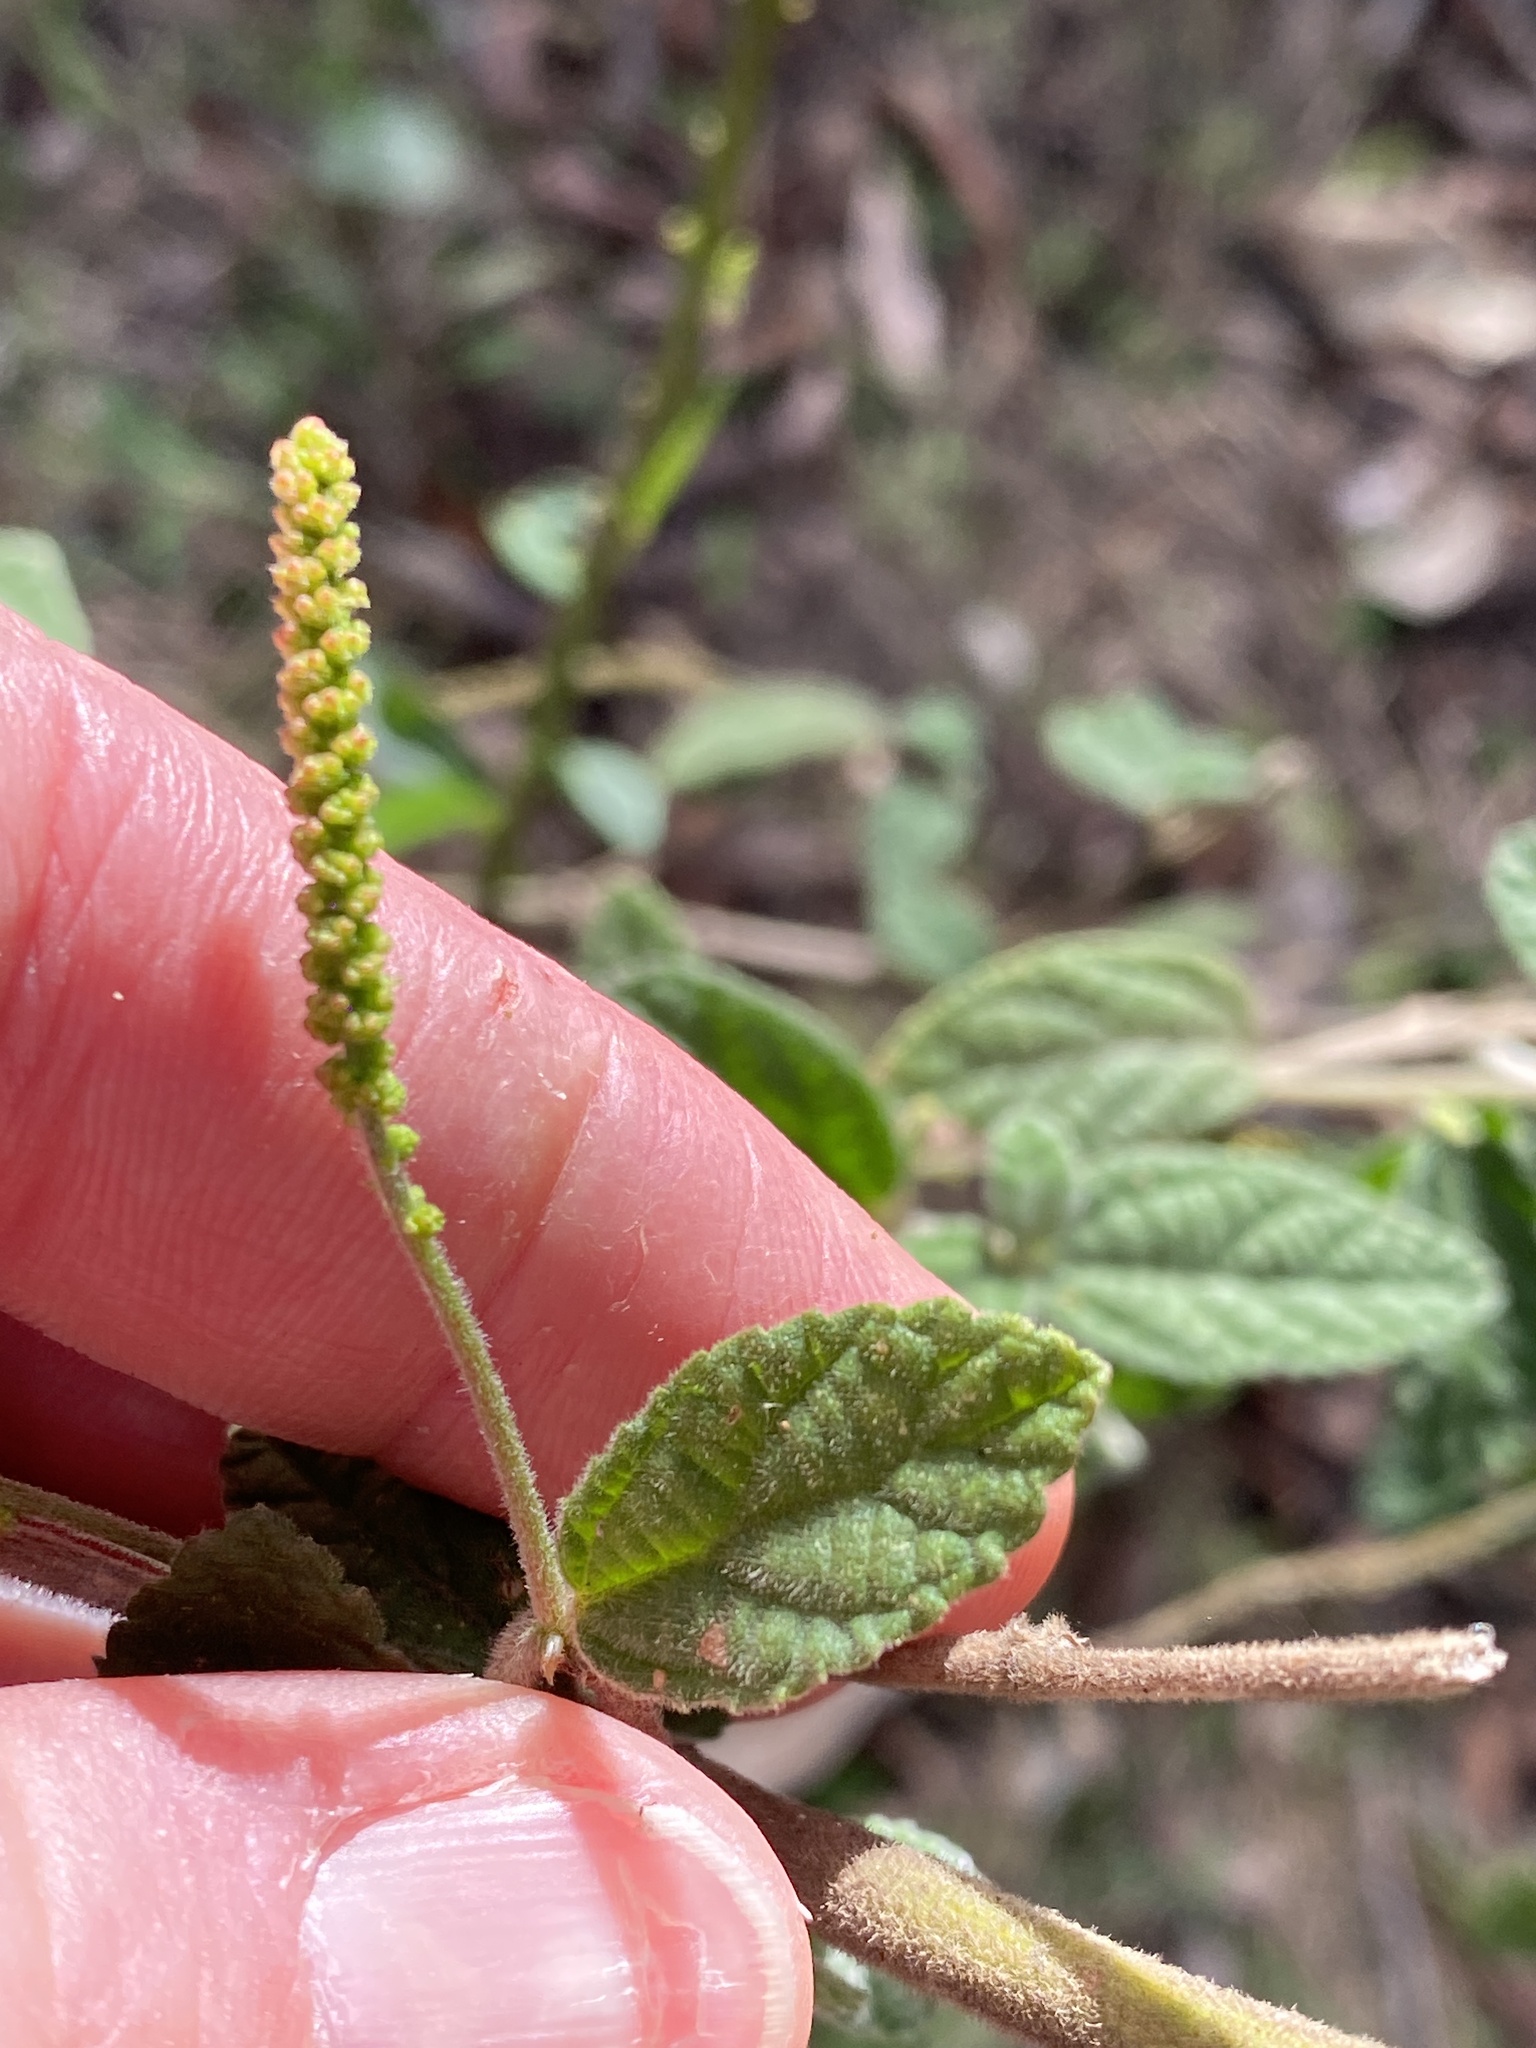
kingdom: Plantae
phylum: Tracheophyta
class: Magnoliopsida
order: Malpighiales
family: Euphorbiaceae
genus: Acalypha
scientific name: Acalypha nemorum
